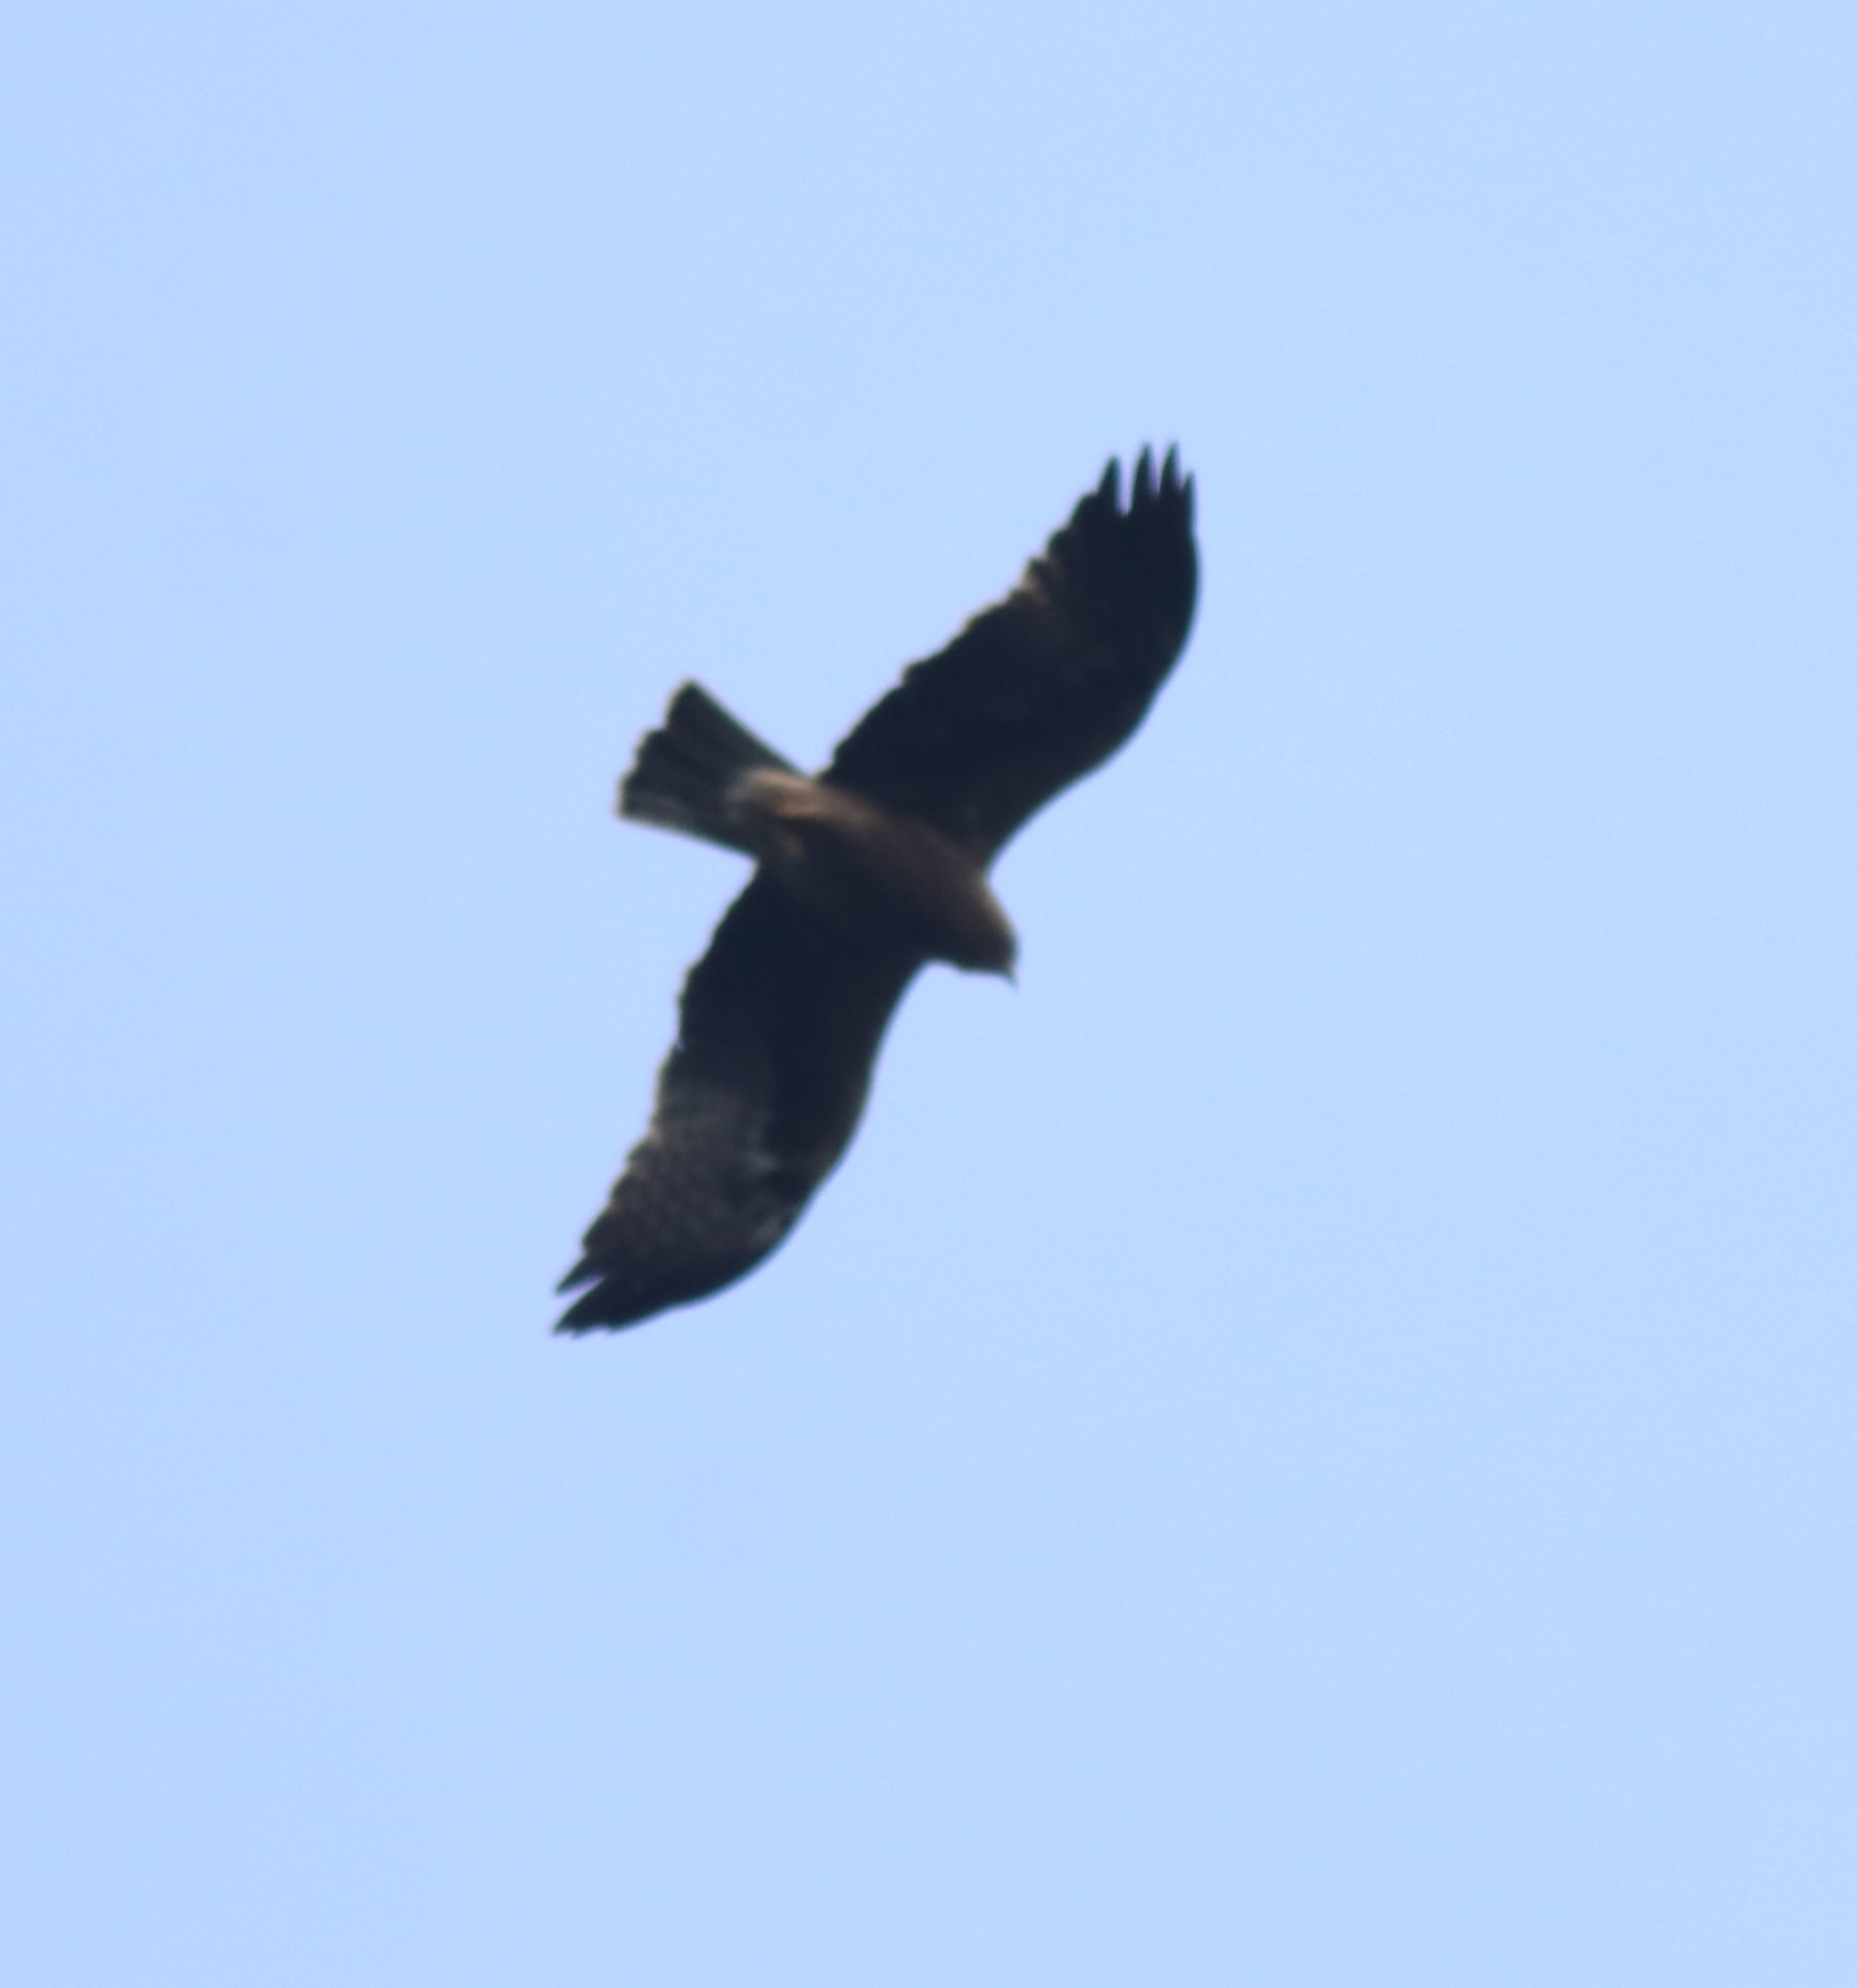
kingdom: Animalia
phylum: Chordata
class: Aves
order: Accipitriformes
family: Accipitridae
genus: Hieraaetus
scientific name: Hieraaetus pennatus
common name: Booted eagle
